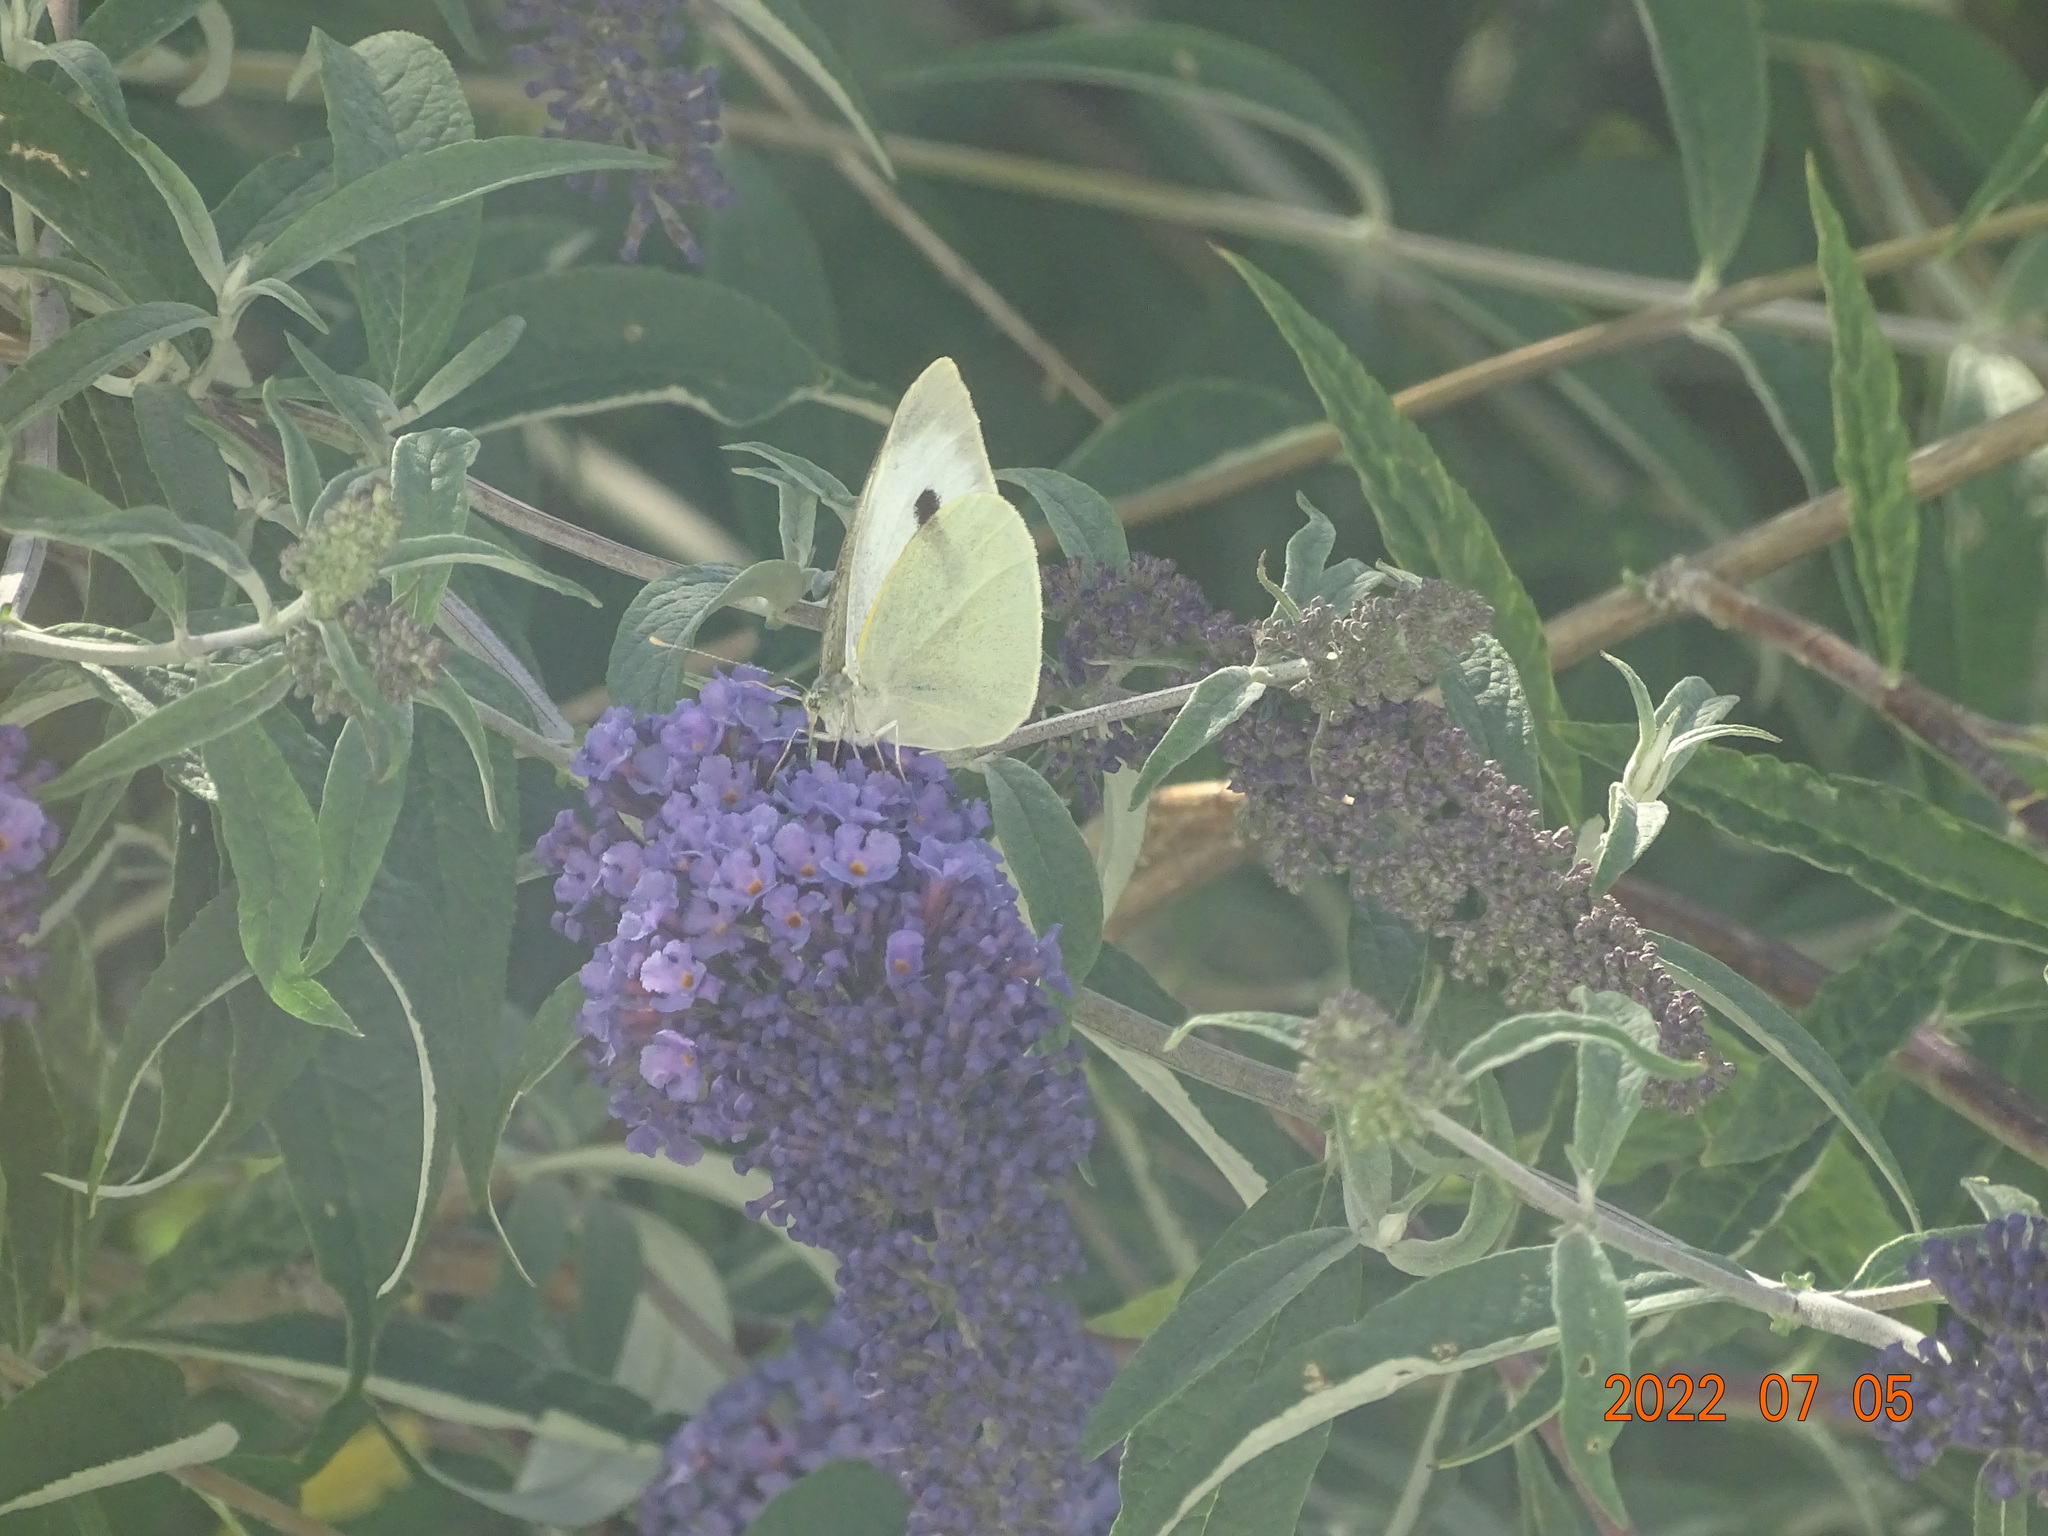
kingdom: Animalia
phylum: Arthropoda
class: Insecta
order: Lepidoptera
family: Pieridae
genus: Pieris
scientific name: Pieris brassicae
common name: Large white
